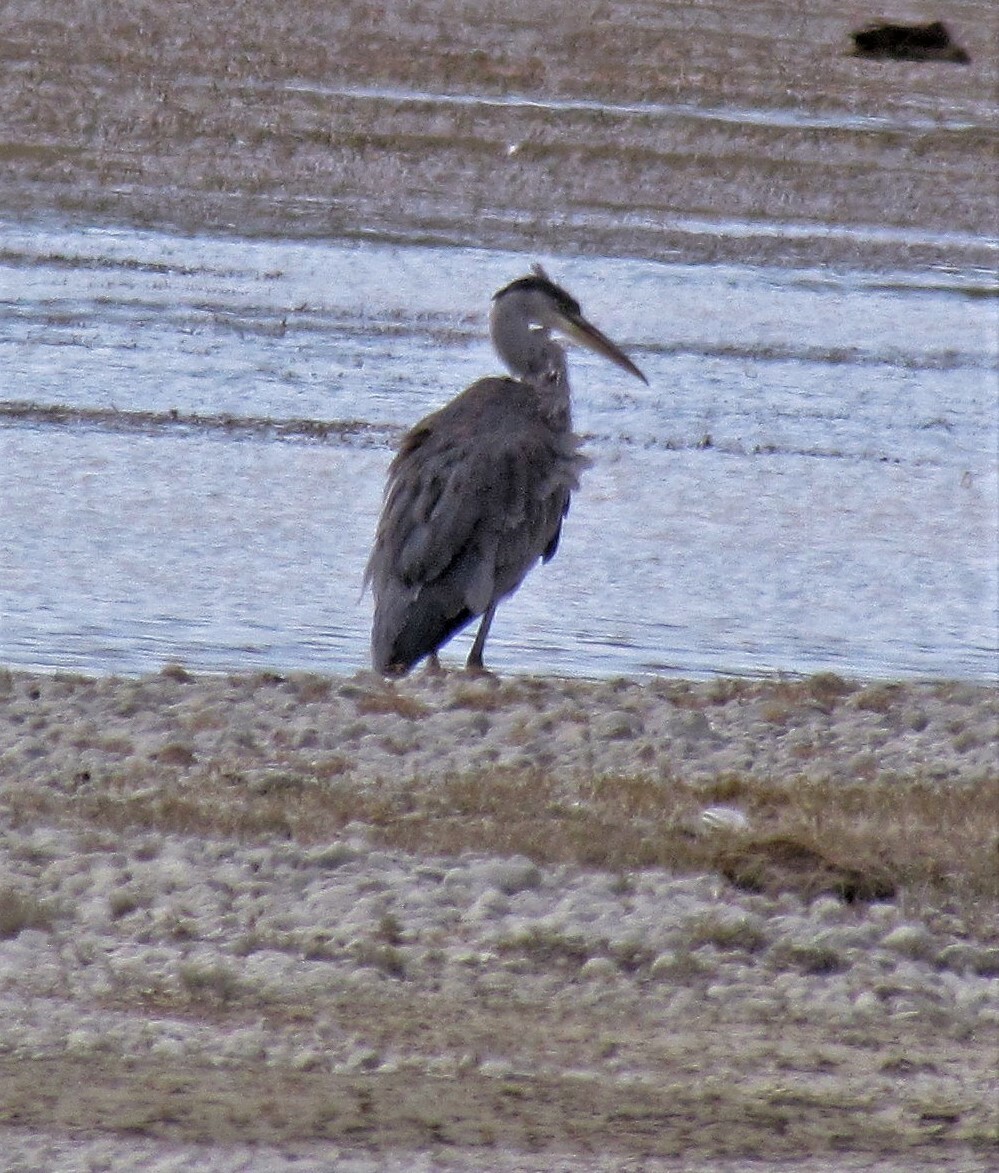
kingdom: Animalia
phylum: Chordata
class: Aves
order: Pelecaniformes
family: Ardeidae
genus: Ardea
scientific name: Ardea cocoi
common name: Cocoi heron
